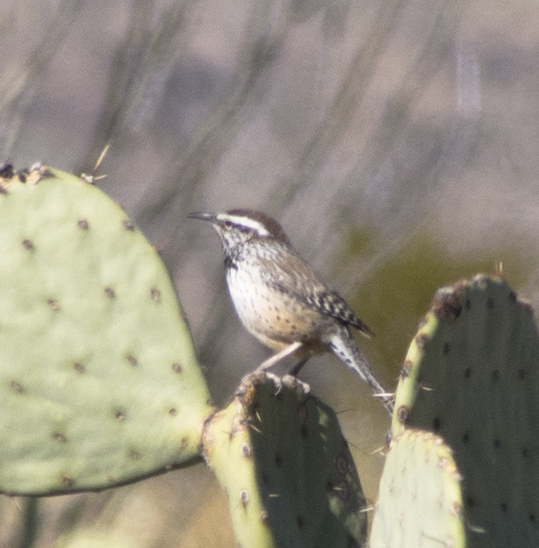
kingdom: Animalia
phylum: Chordata
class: Aves
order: Passeriformes
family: Troglodytidae
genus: Campylorhynchus
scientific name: Campylorhynchus brunneicapillus
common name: Cactus wren
